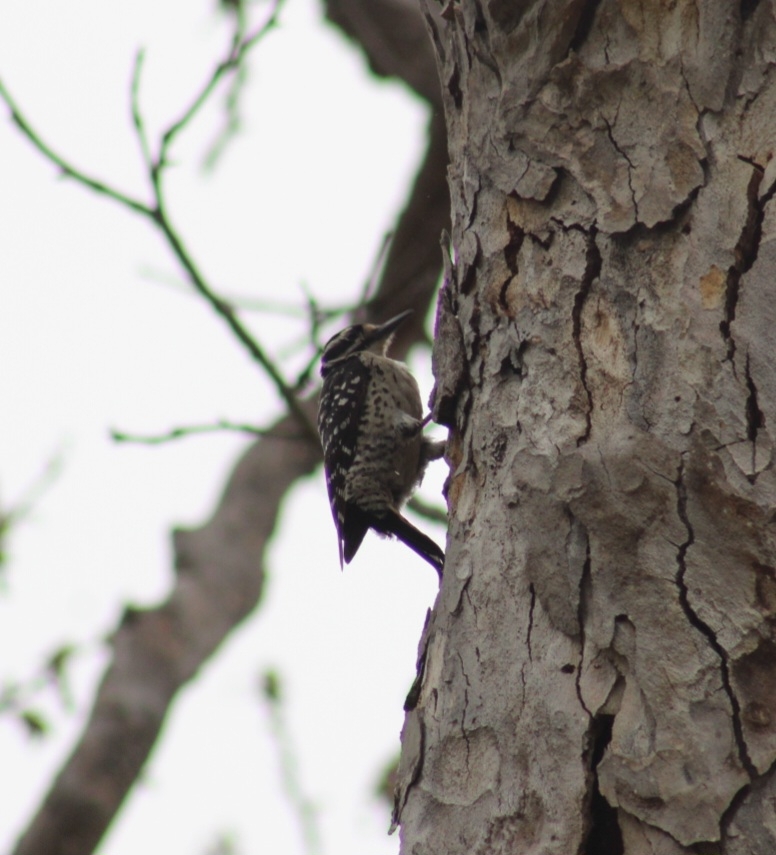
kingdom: Animalia
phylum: Chordata
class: Aves
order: Piciformes
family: Picidae
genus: Dryobates
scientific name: Dryobates nuttallii
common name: Nuttall's woodpecker
